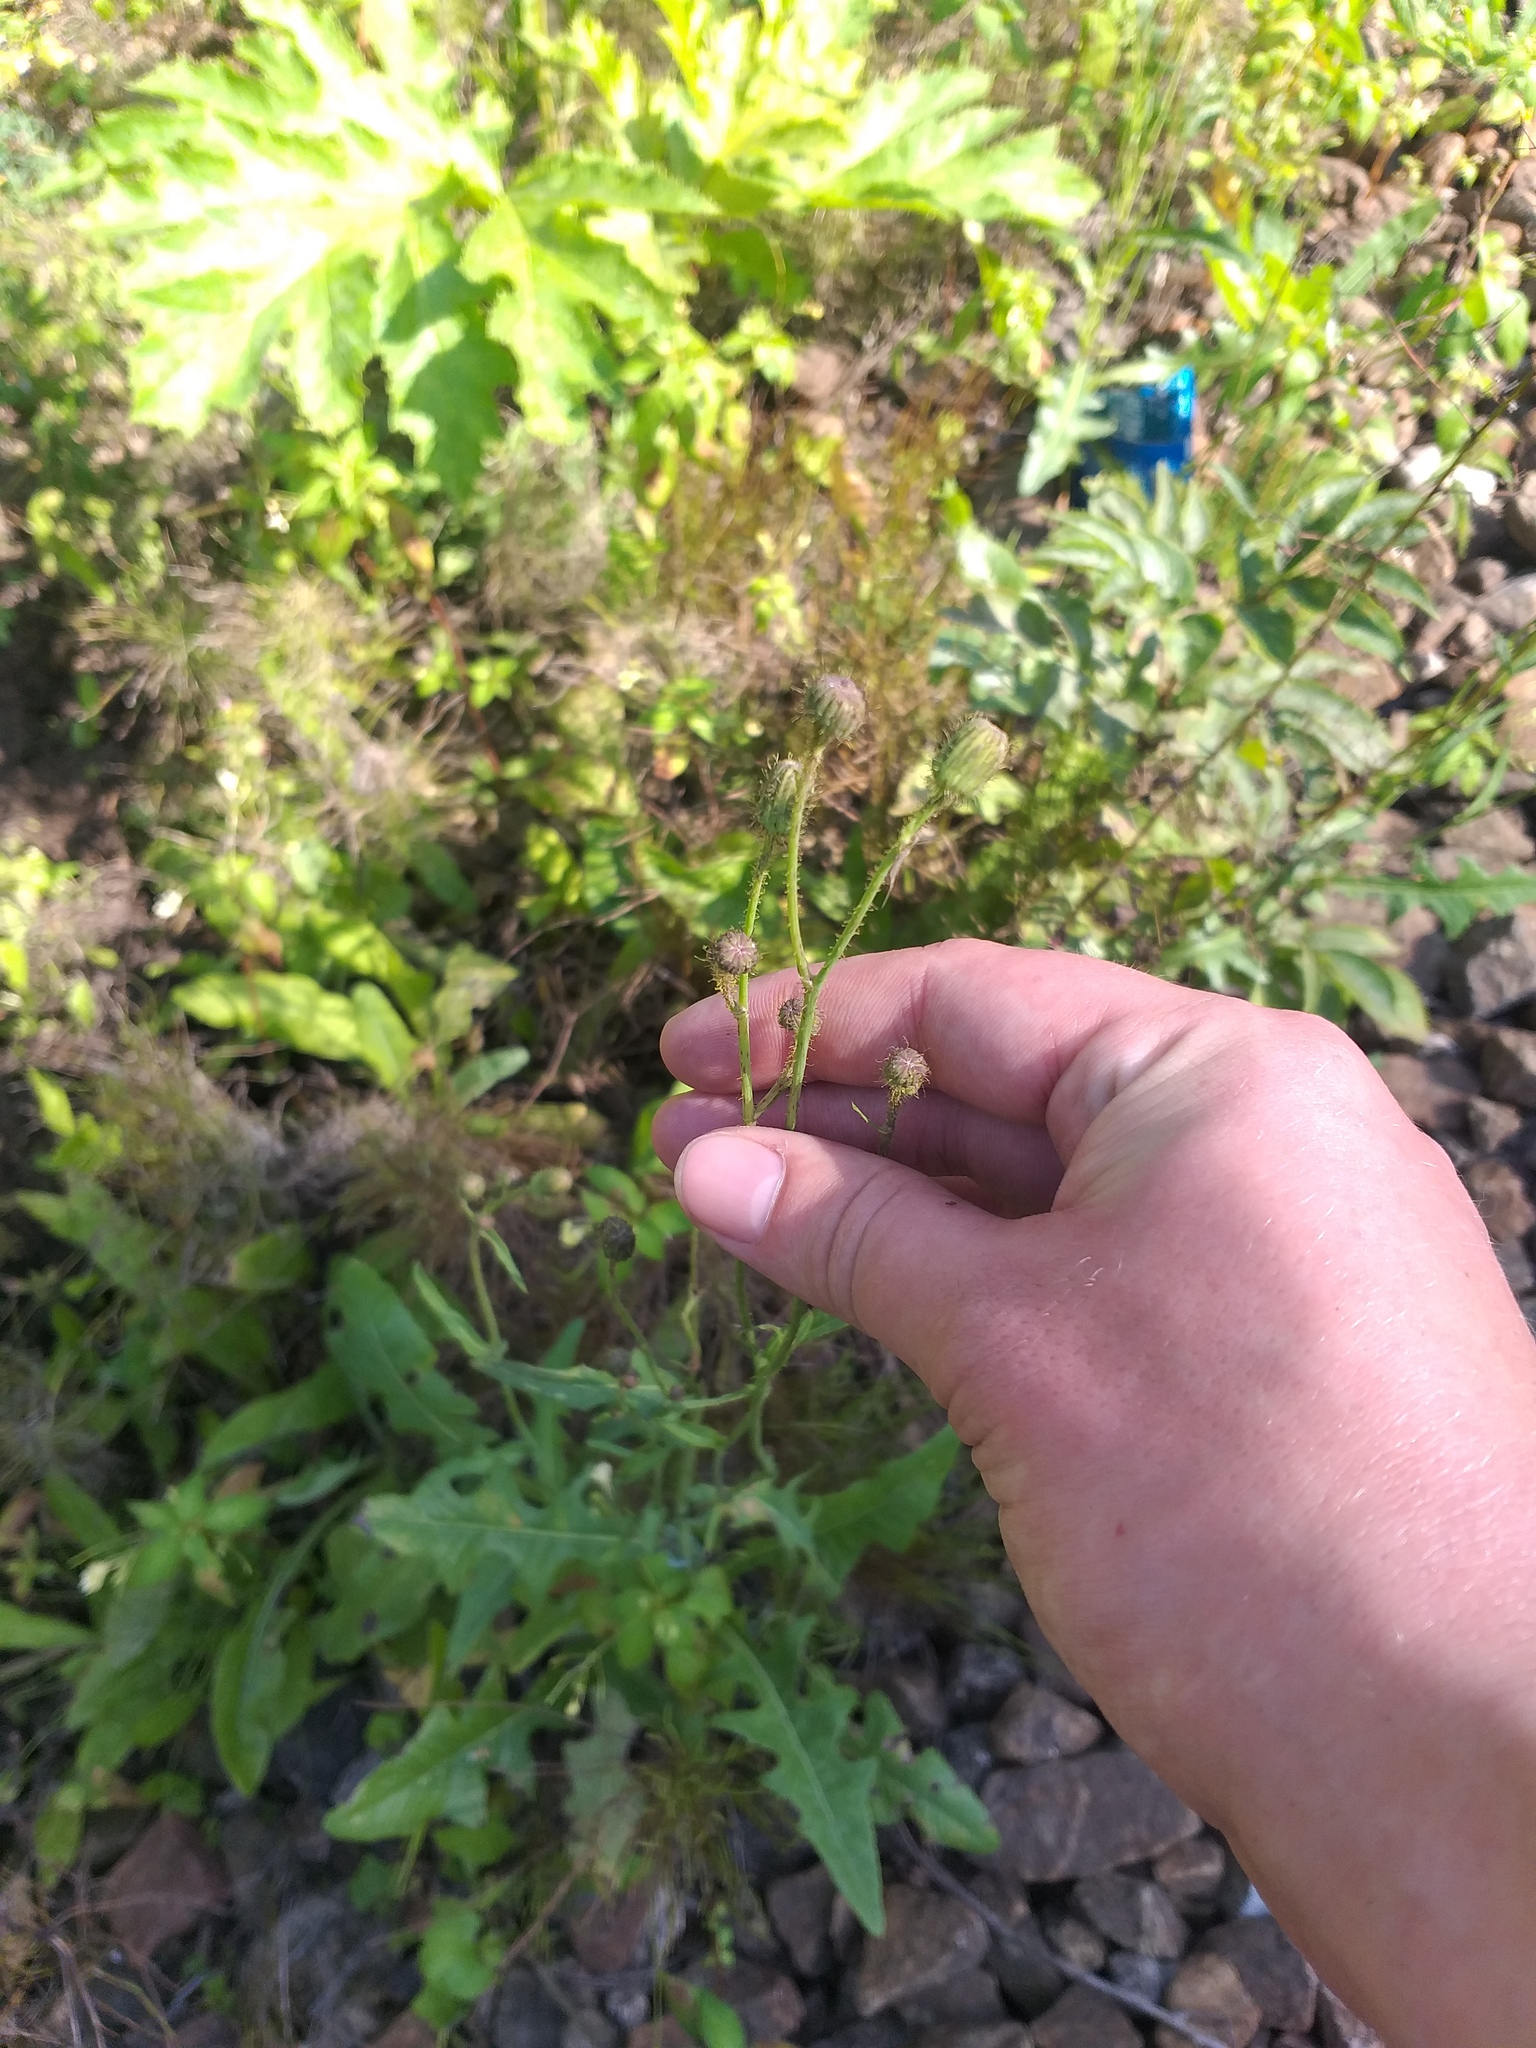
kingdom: Plantae
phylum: Tracheophyta
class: Magnoliopsida
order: Asterales
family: Asteraceae
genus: Sonchus
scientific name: Sonchus arvensis
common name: Perennial sow-thistle
